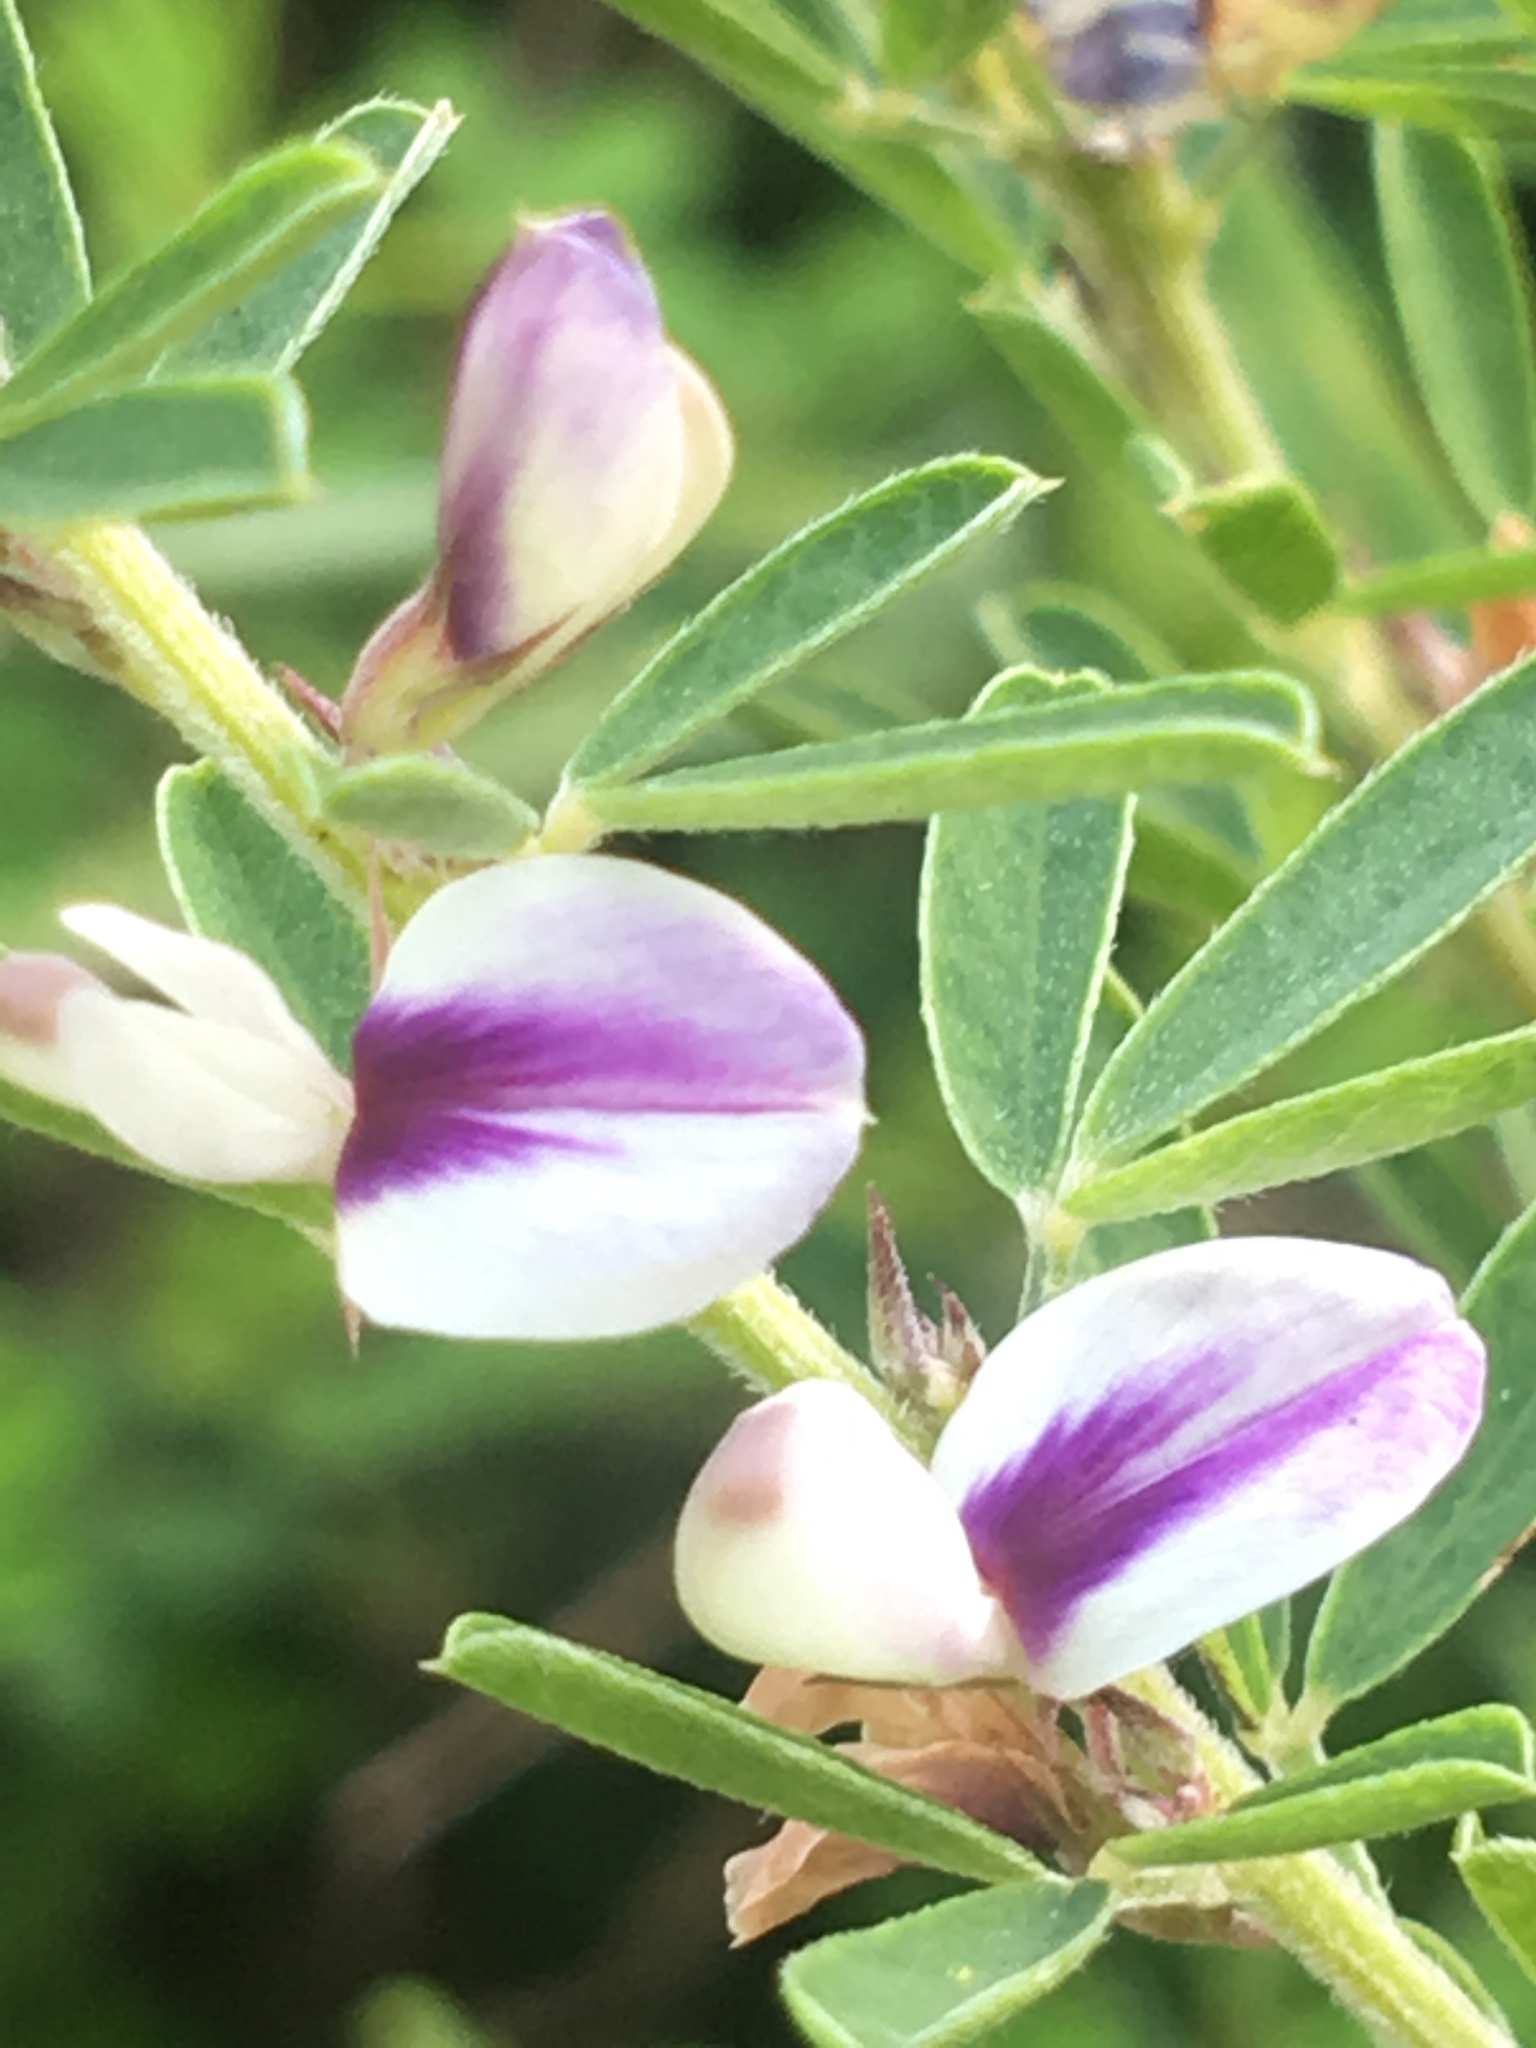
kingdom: Plantae
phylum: Tracheophyta
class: Magnoliopsida
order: Fabales
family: Fabaceae
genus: Lespedeza
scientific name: Lespedeza cuneata
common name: Chinese bush-clover
